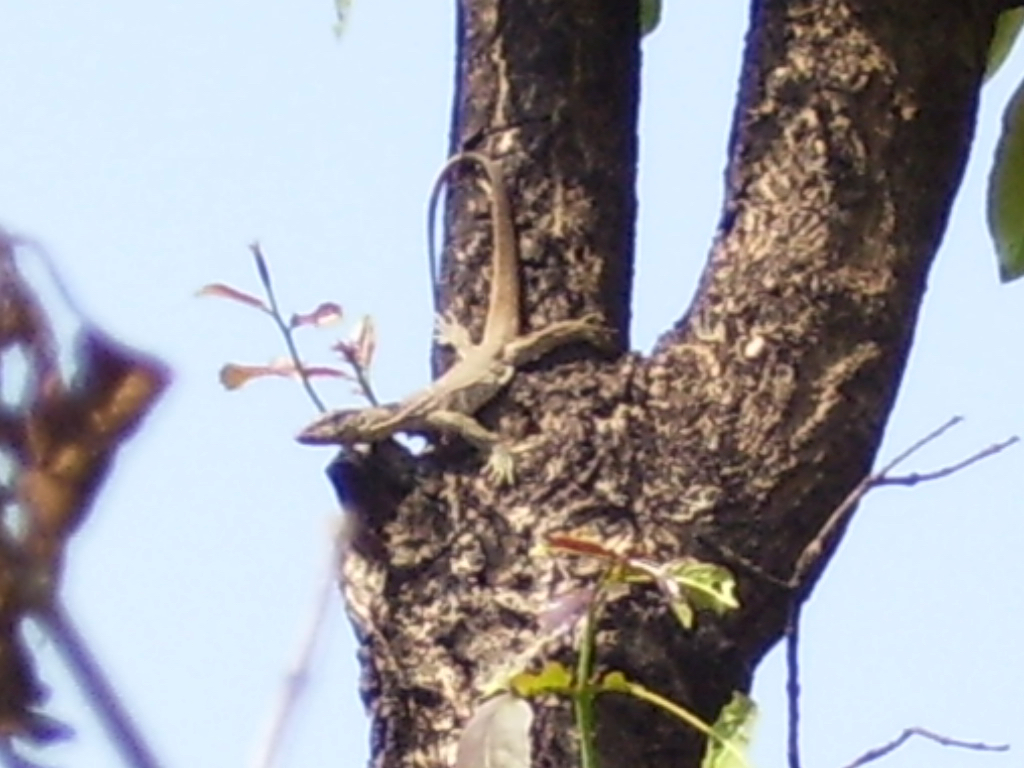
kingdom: Animalia
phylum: Chordata
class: Squamata
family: Varanidae
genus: Varanus
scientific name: Varanus bengalensis
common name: Bengal monitor
